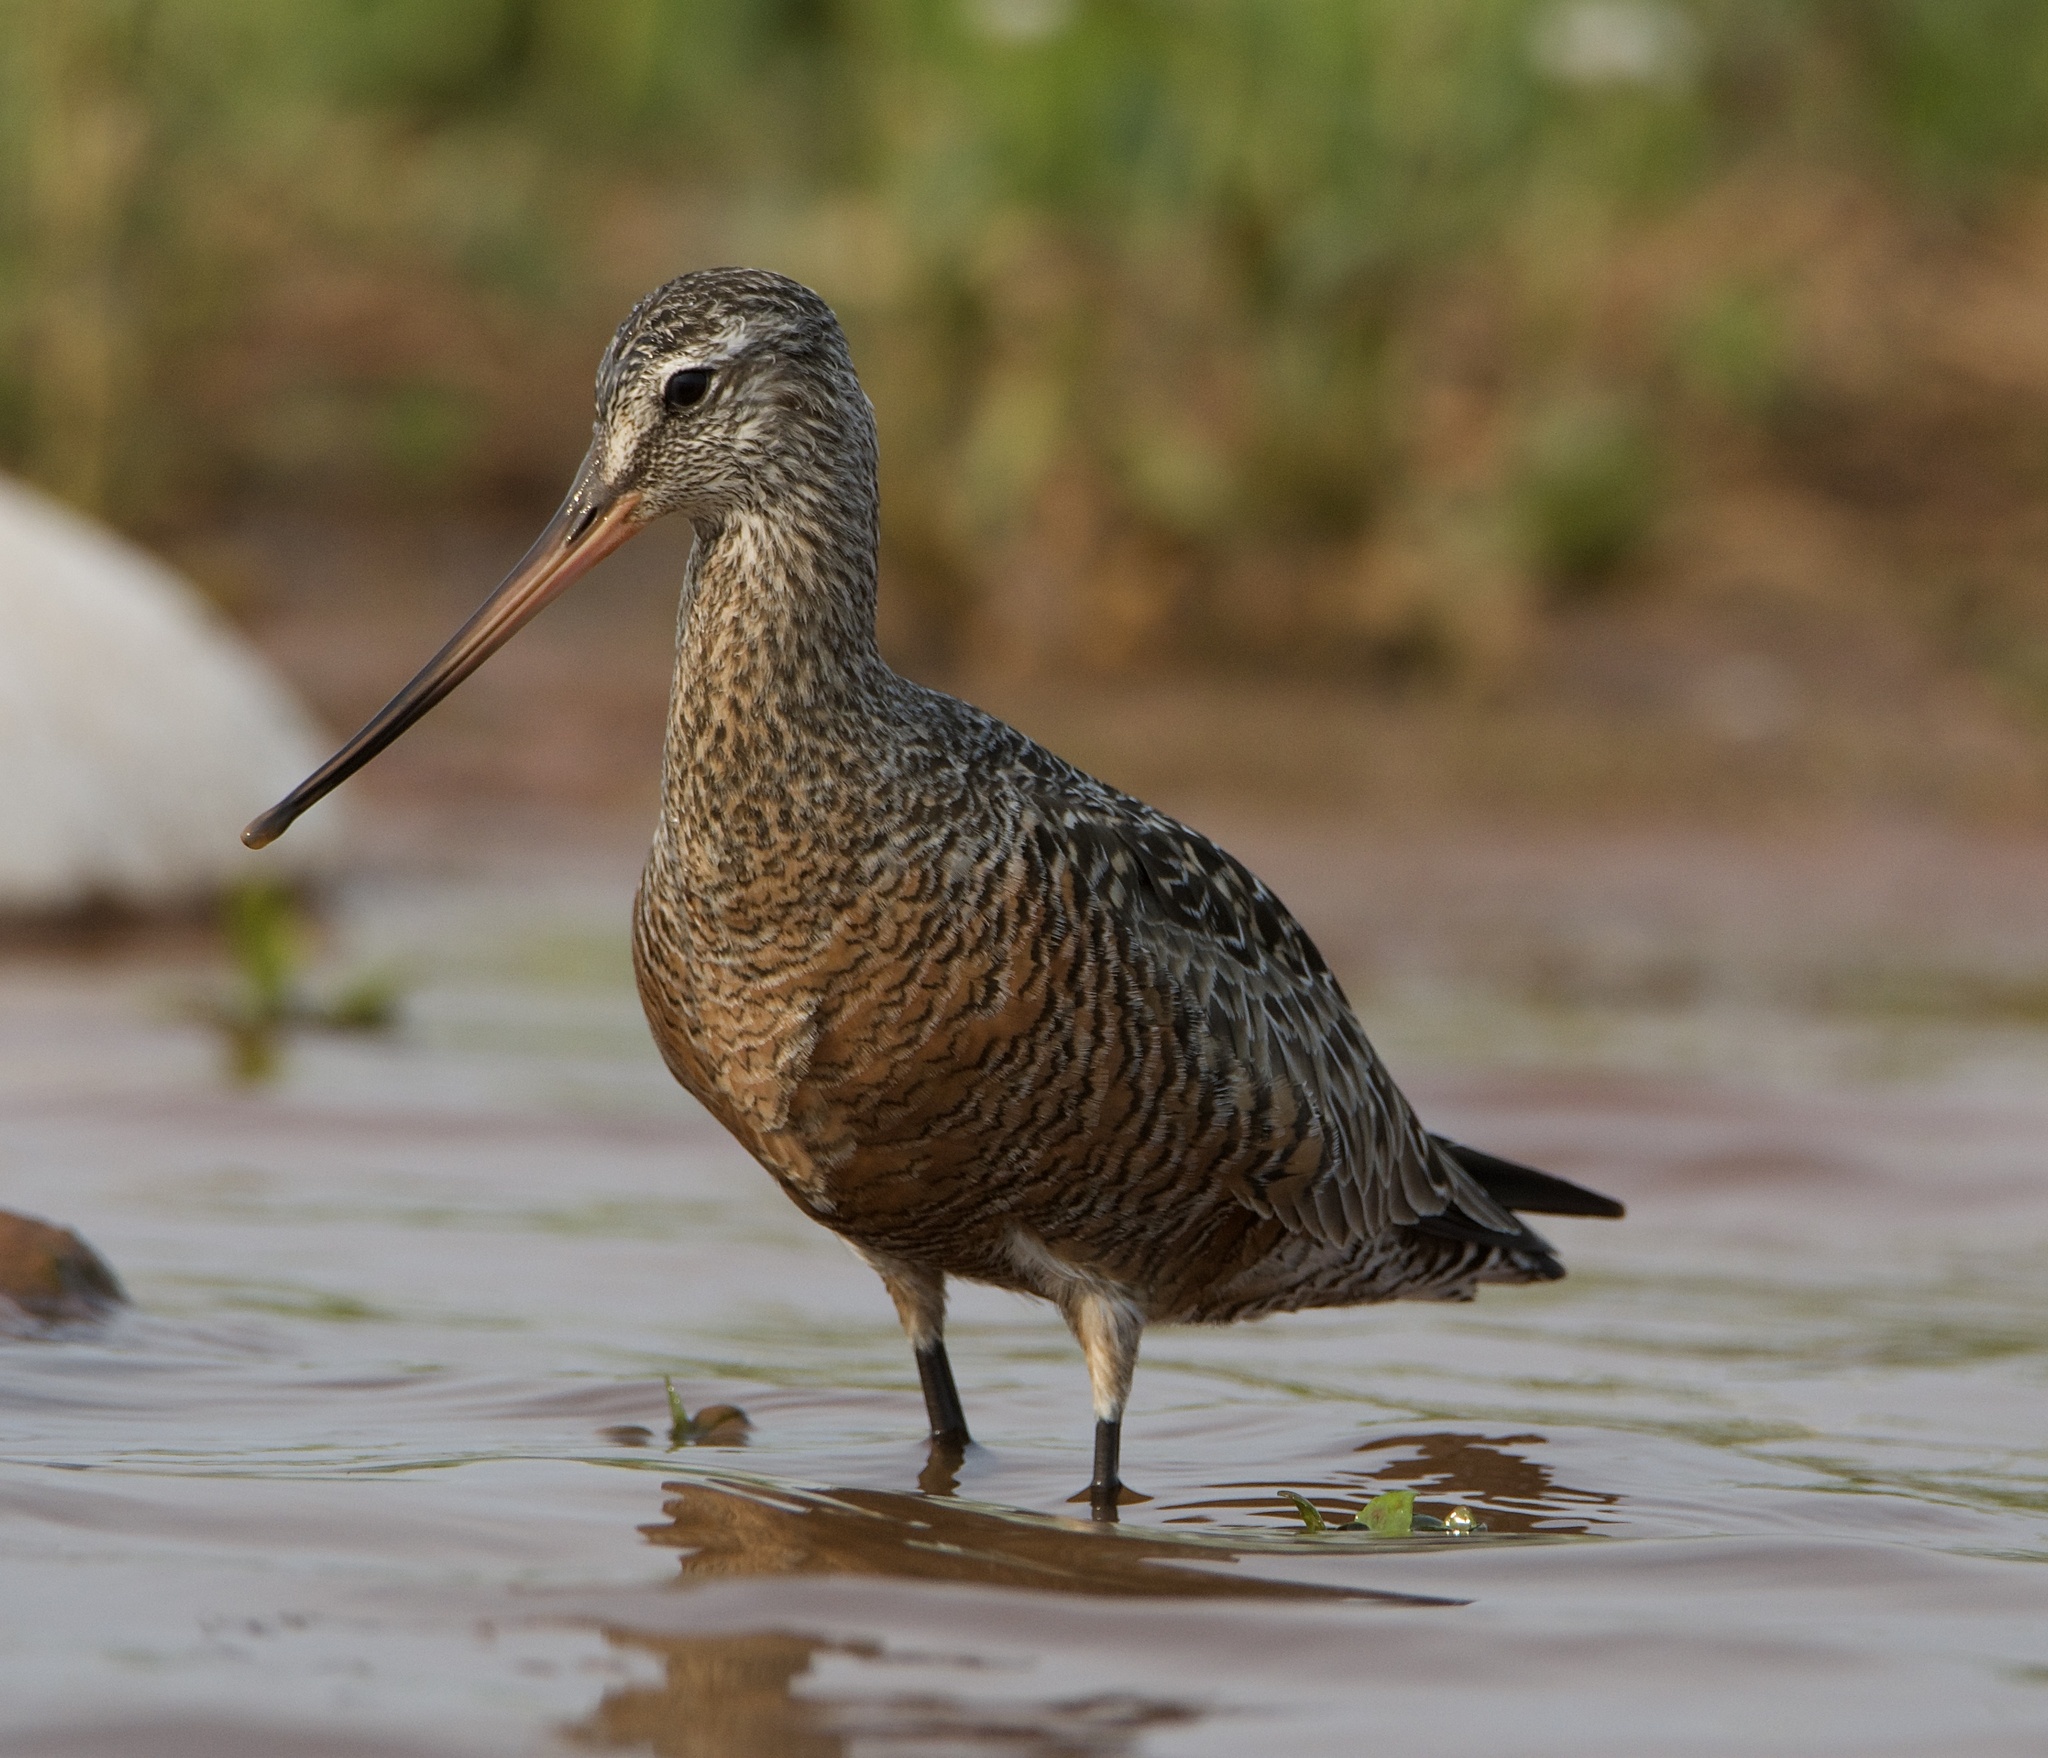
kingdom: Animalia
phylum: Chordata
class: Aves
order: Charadriiformes
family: Scolopacidae
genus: Limosa
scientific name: Limosa haemastica
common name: Hudsonian godwit
